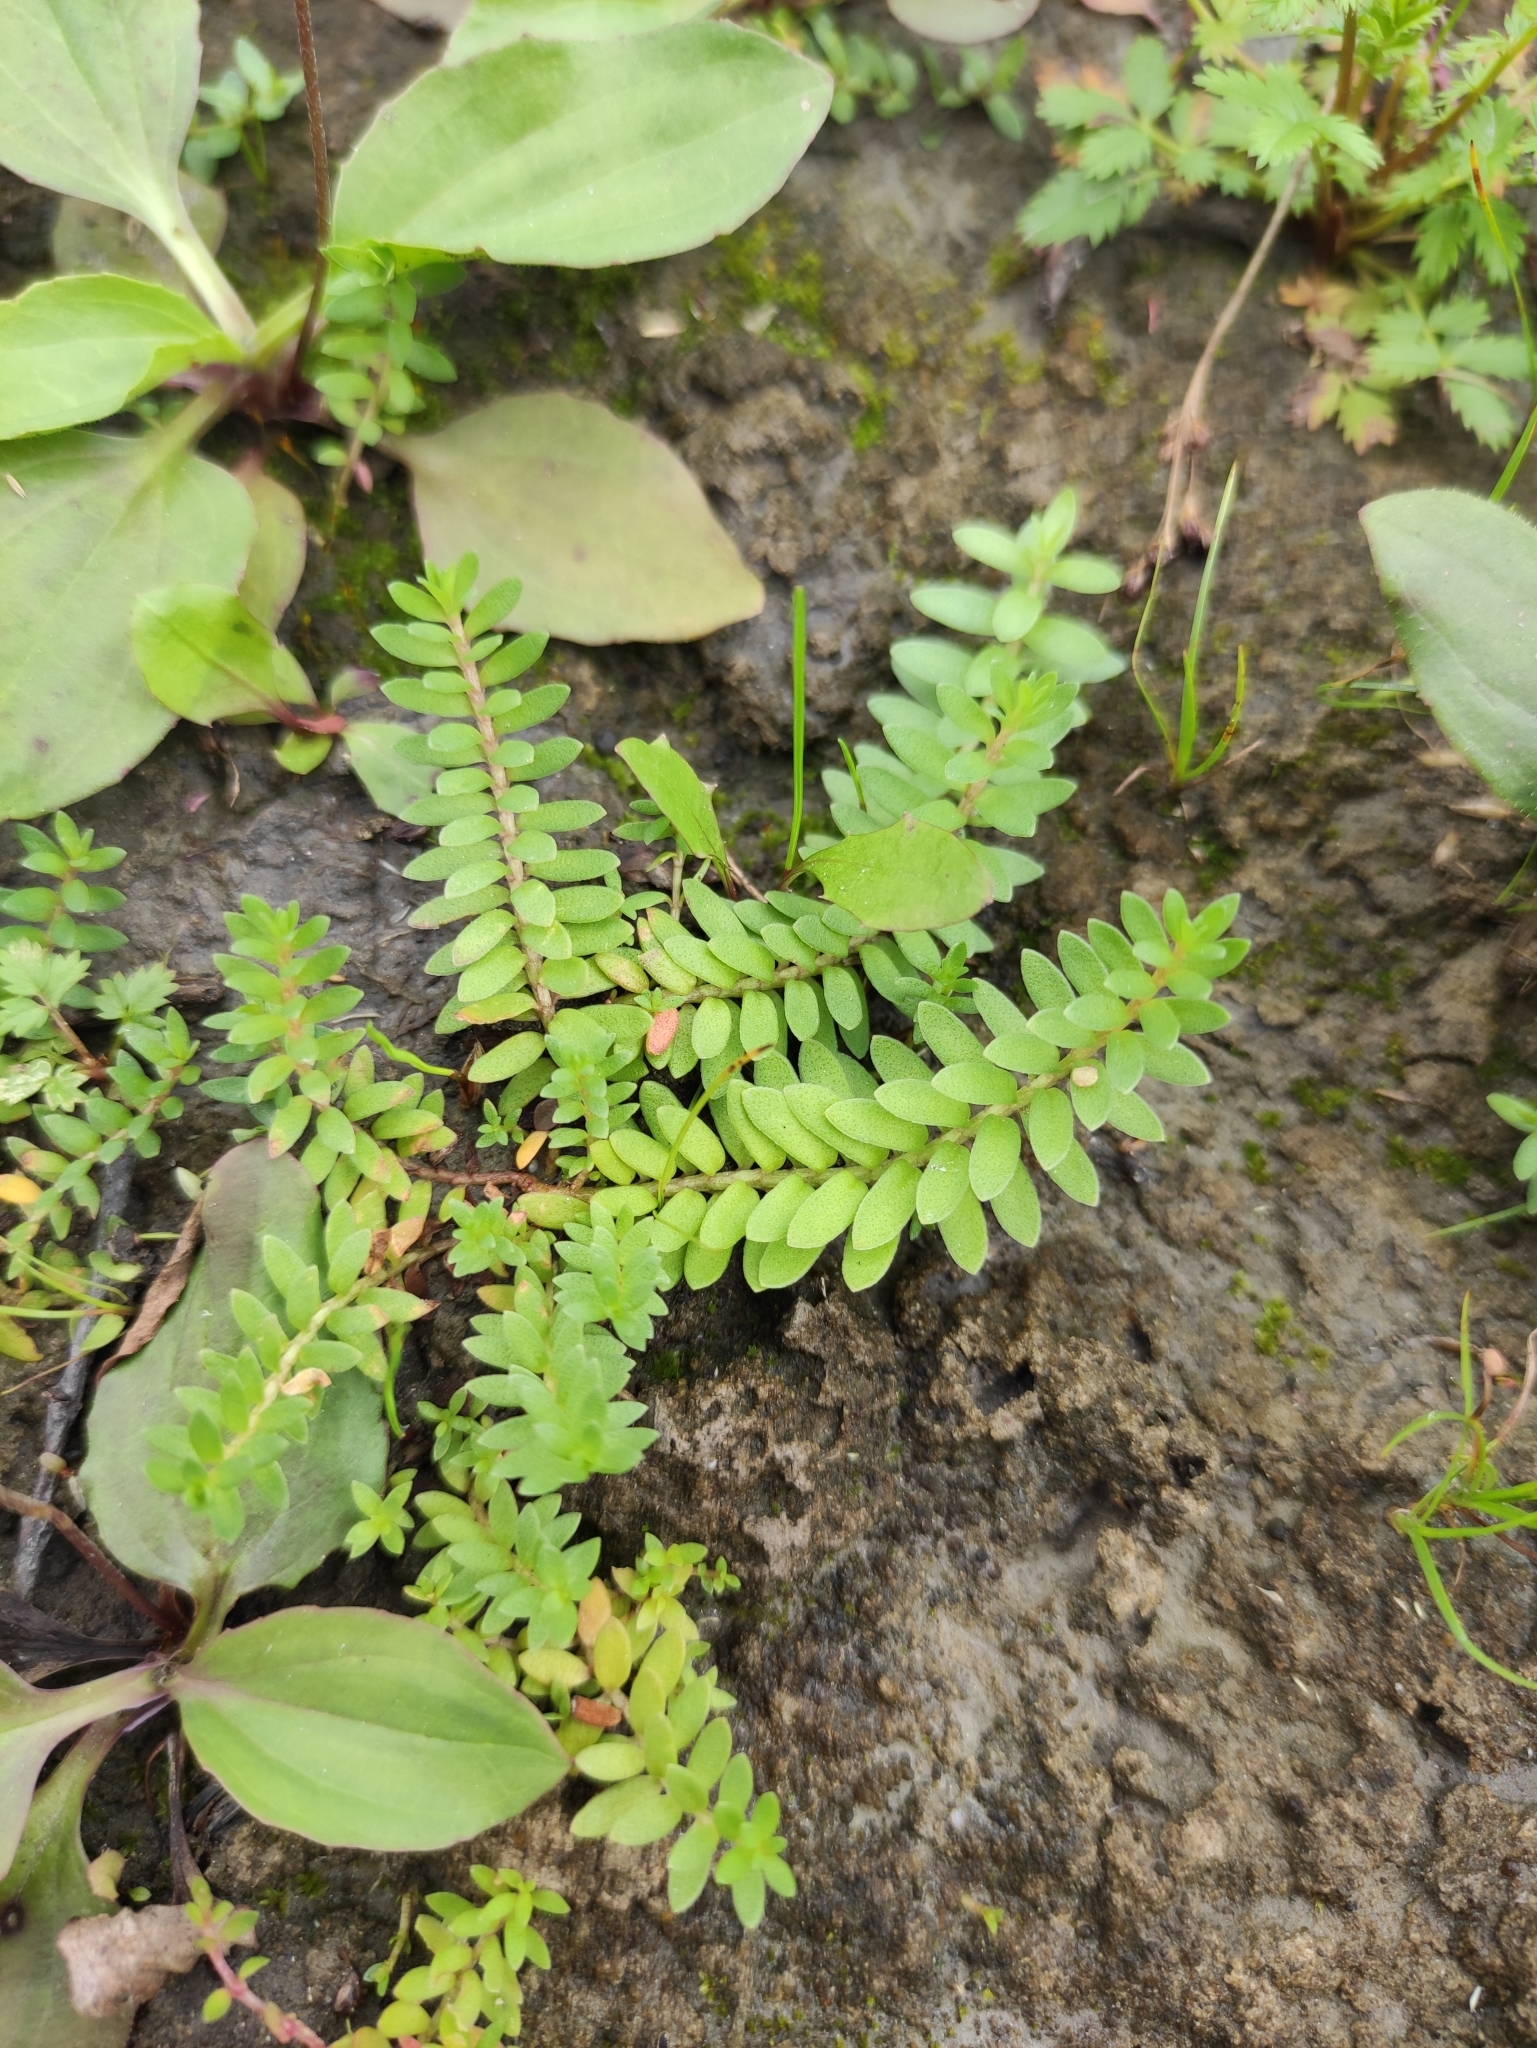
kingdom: Plantae
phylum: Tracheophyta
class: Magnoliopsida
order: Ericales
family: Primulaceae
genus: Lysimachia
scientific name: Lysimachia maritima
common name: Sea milkwort
